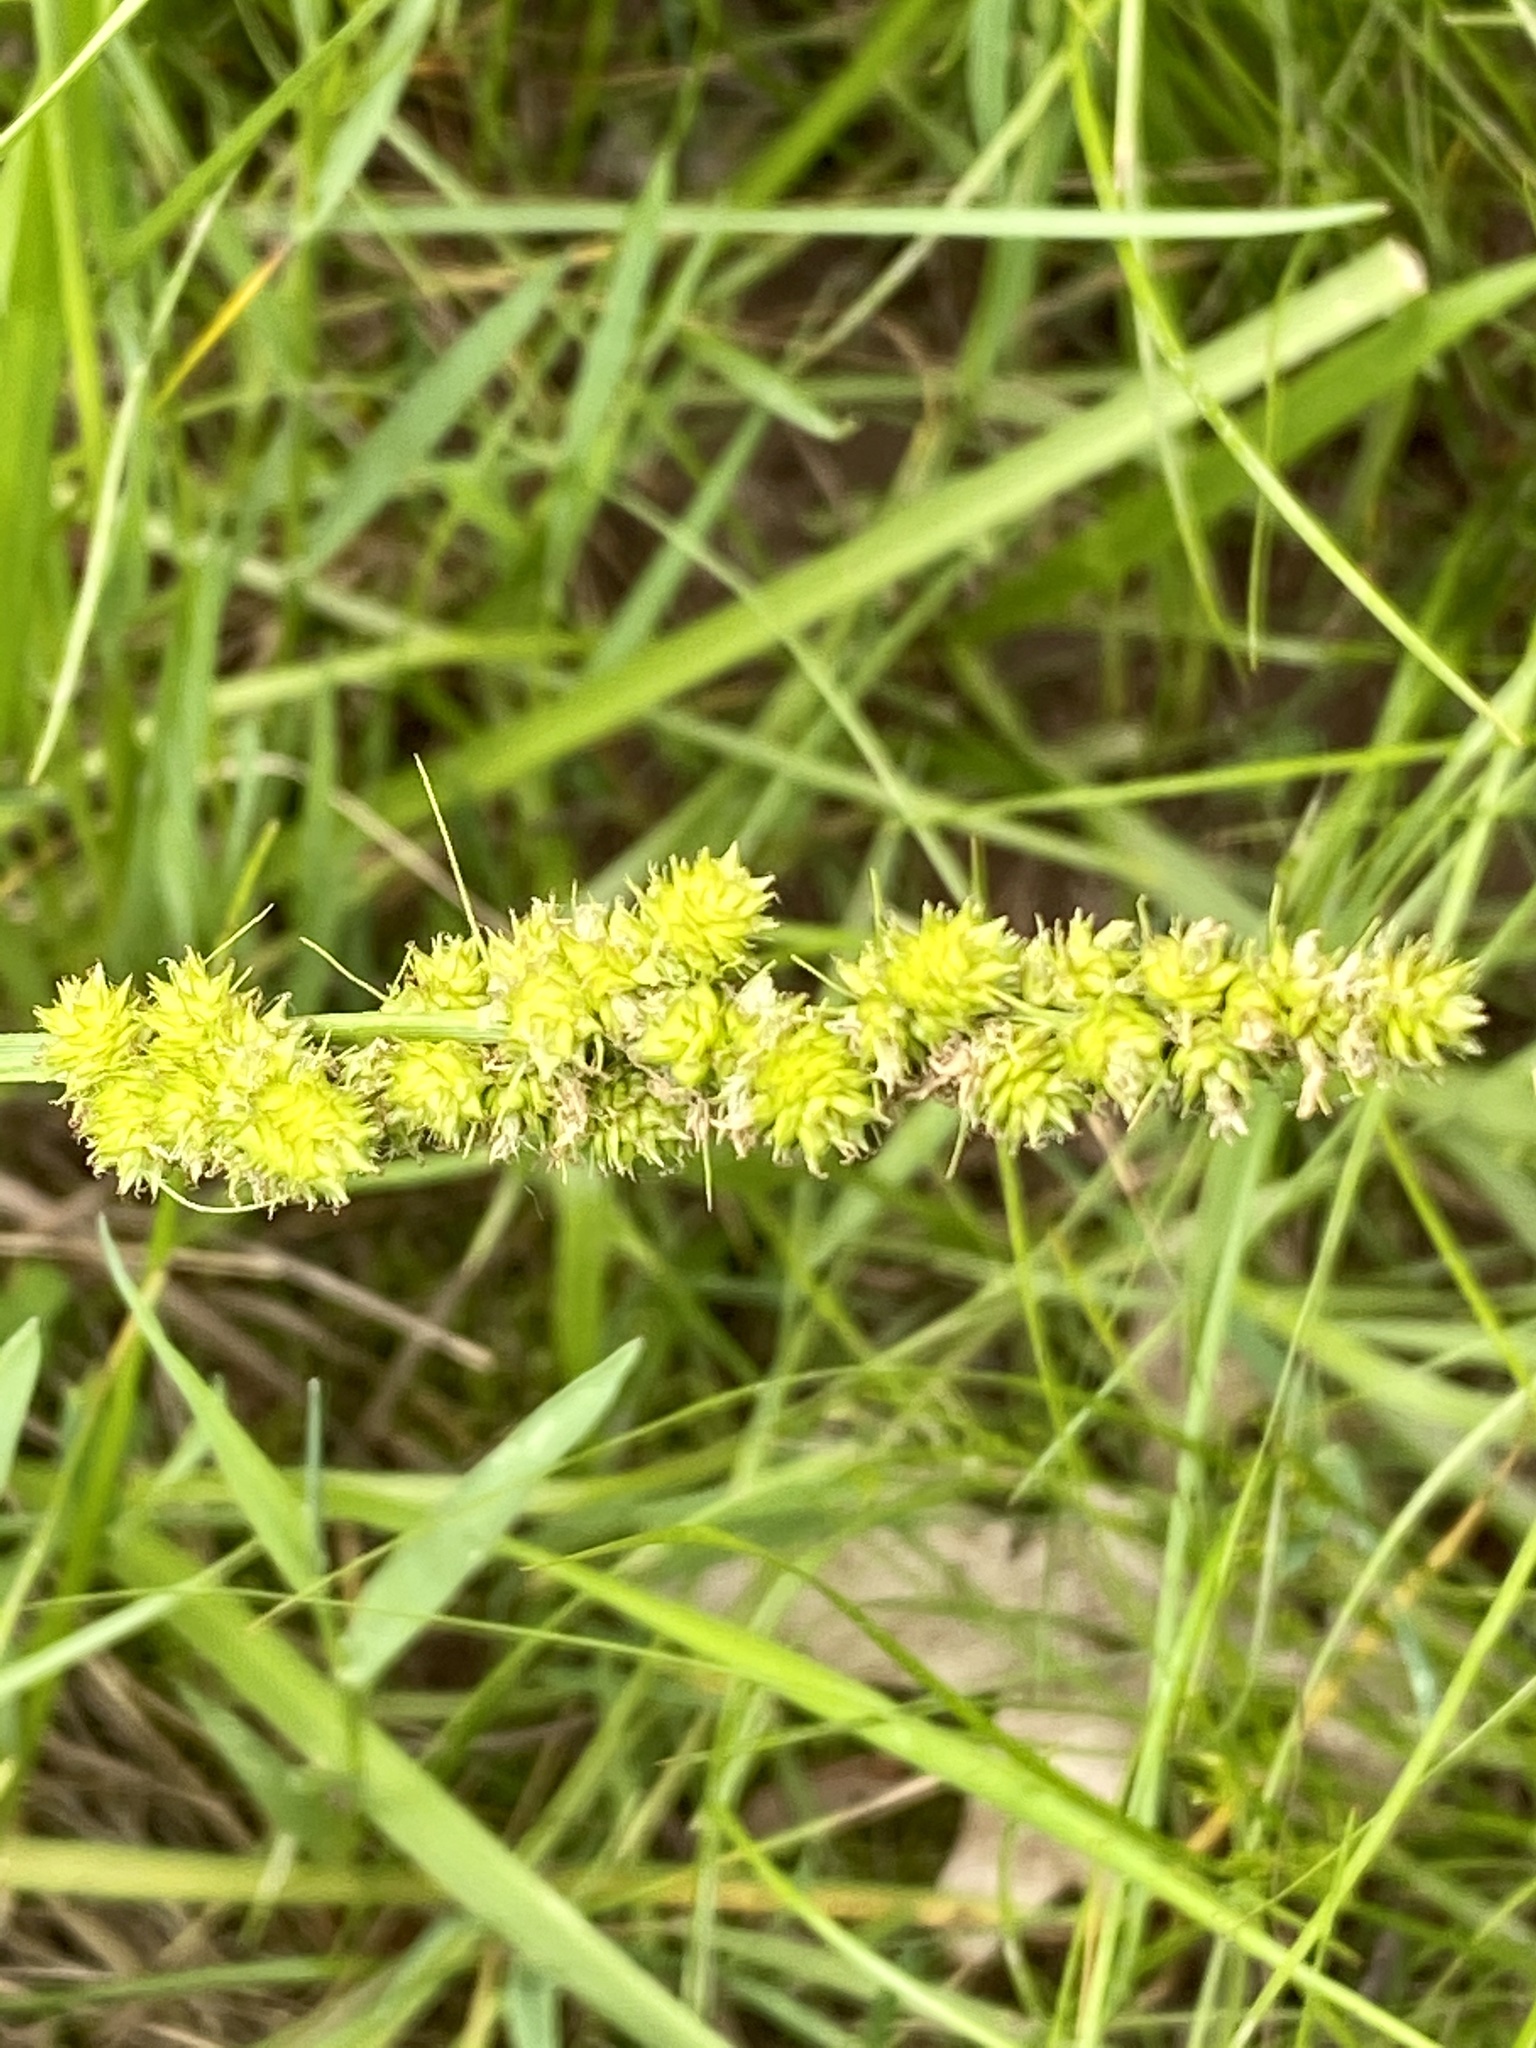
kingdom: Plantae
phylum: Tracheophyta
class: Liliopsida
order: Poales
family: Cyperaceae
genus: Carex
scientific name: Carex vulpinoidea
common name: American fox-sedge
